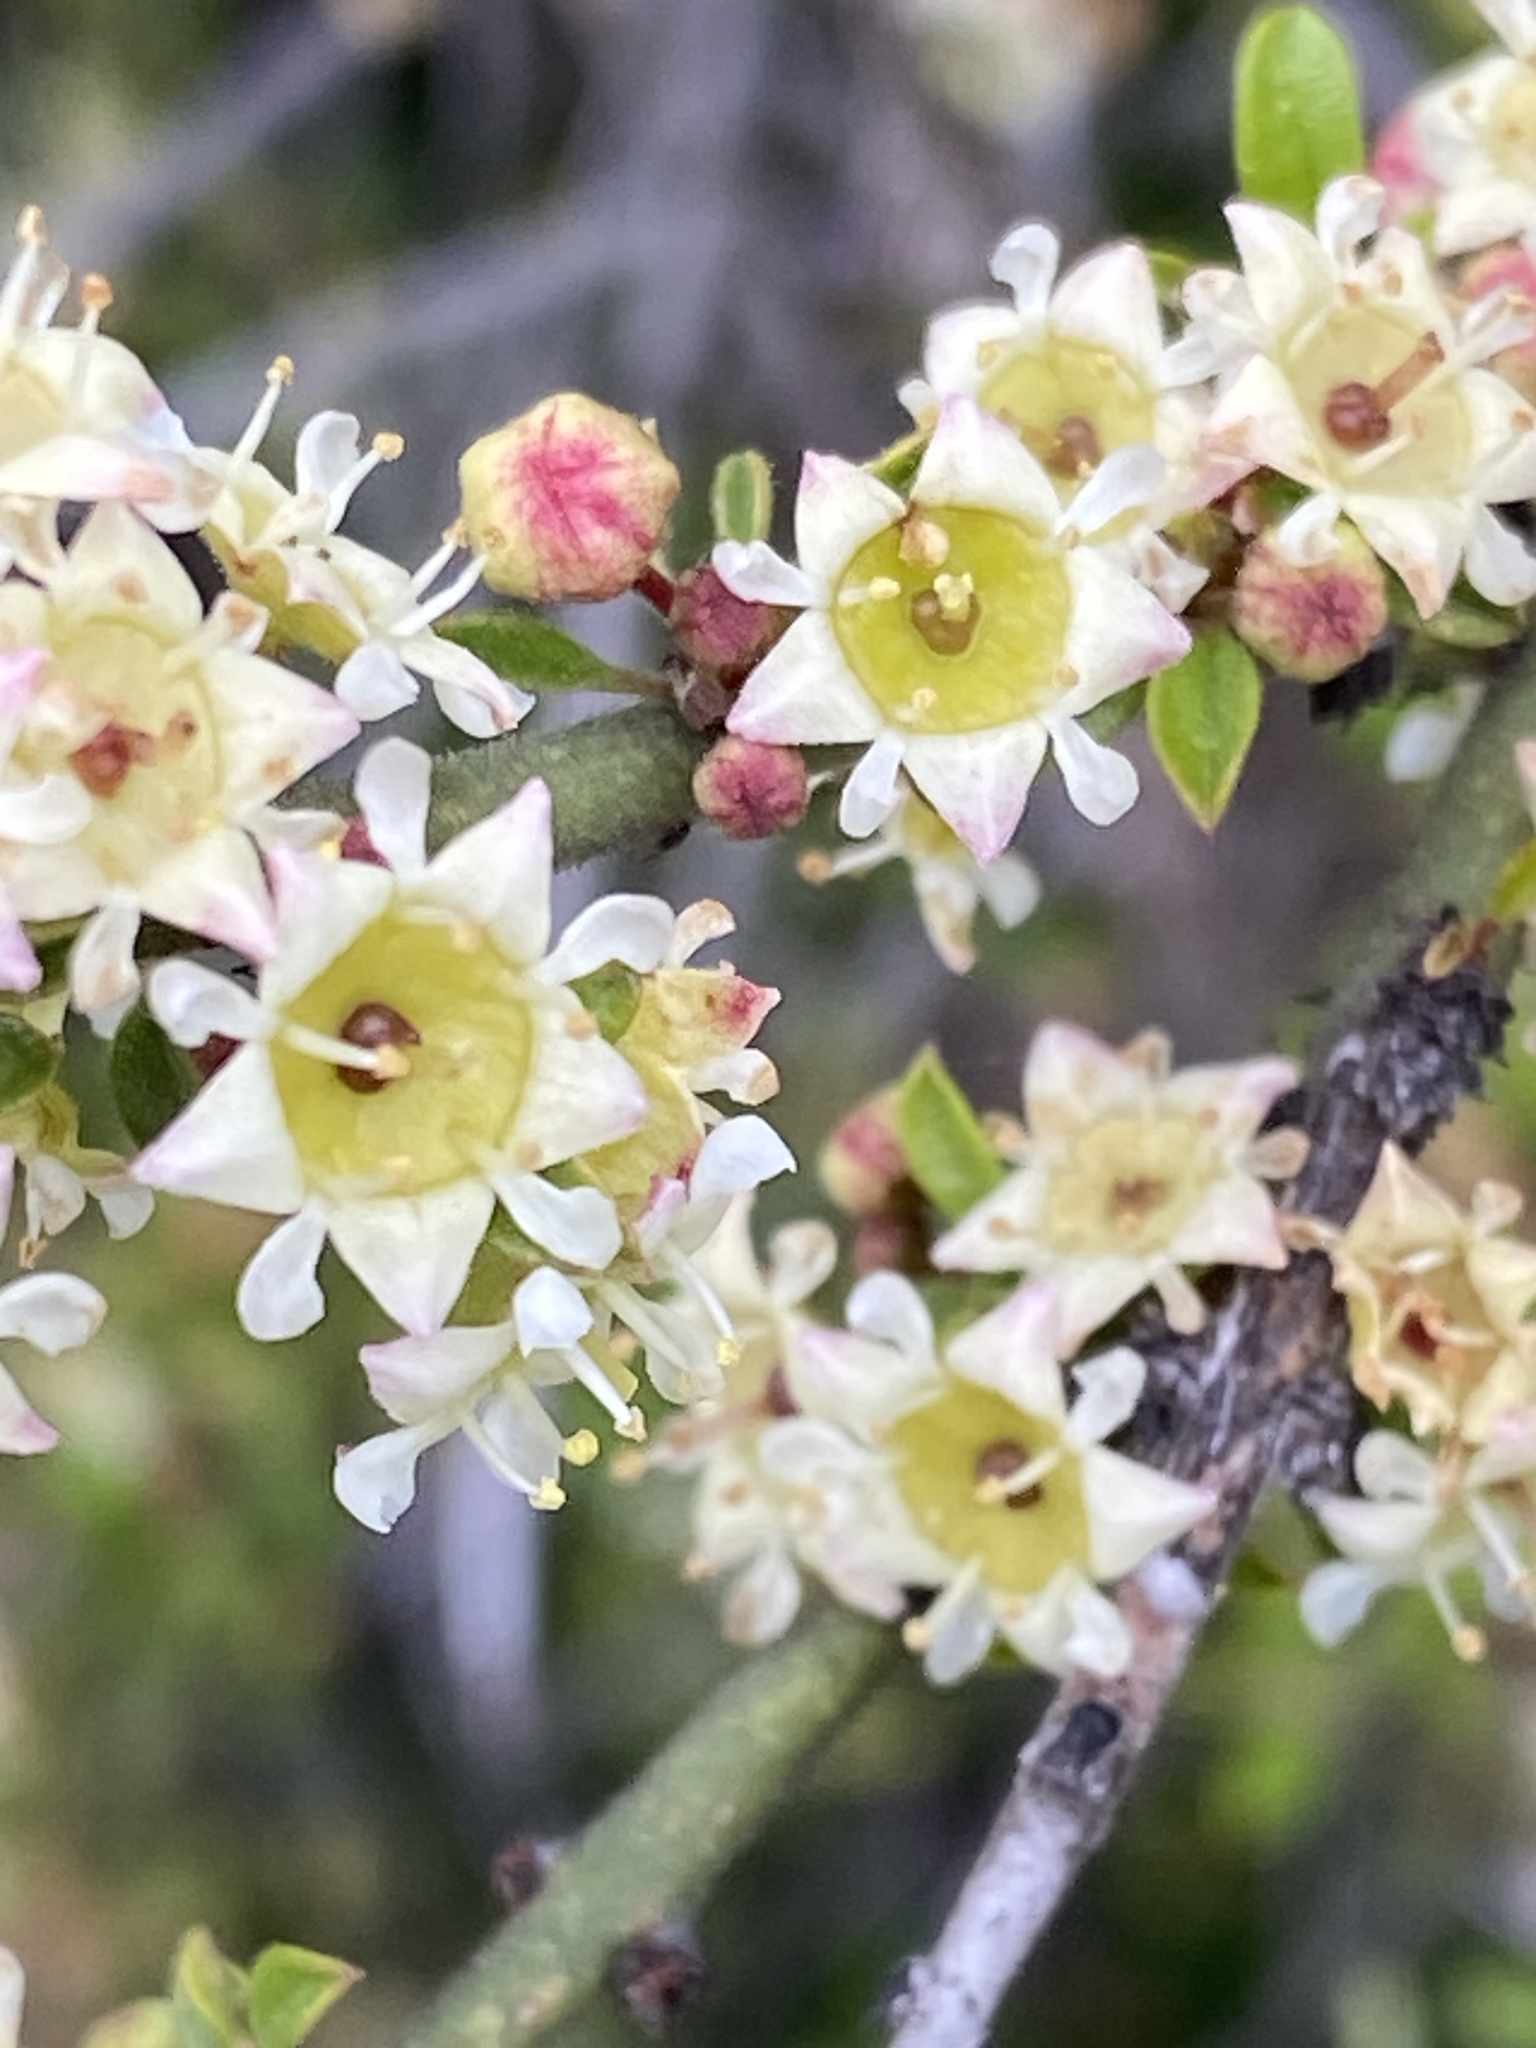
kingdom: Plantae
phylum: Tracheophyta
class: Magnoliopsida
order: Rosales
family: Rhamnaceae
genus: Adolphia
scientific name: Adolphia californica
